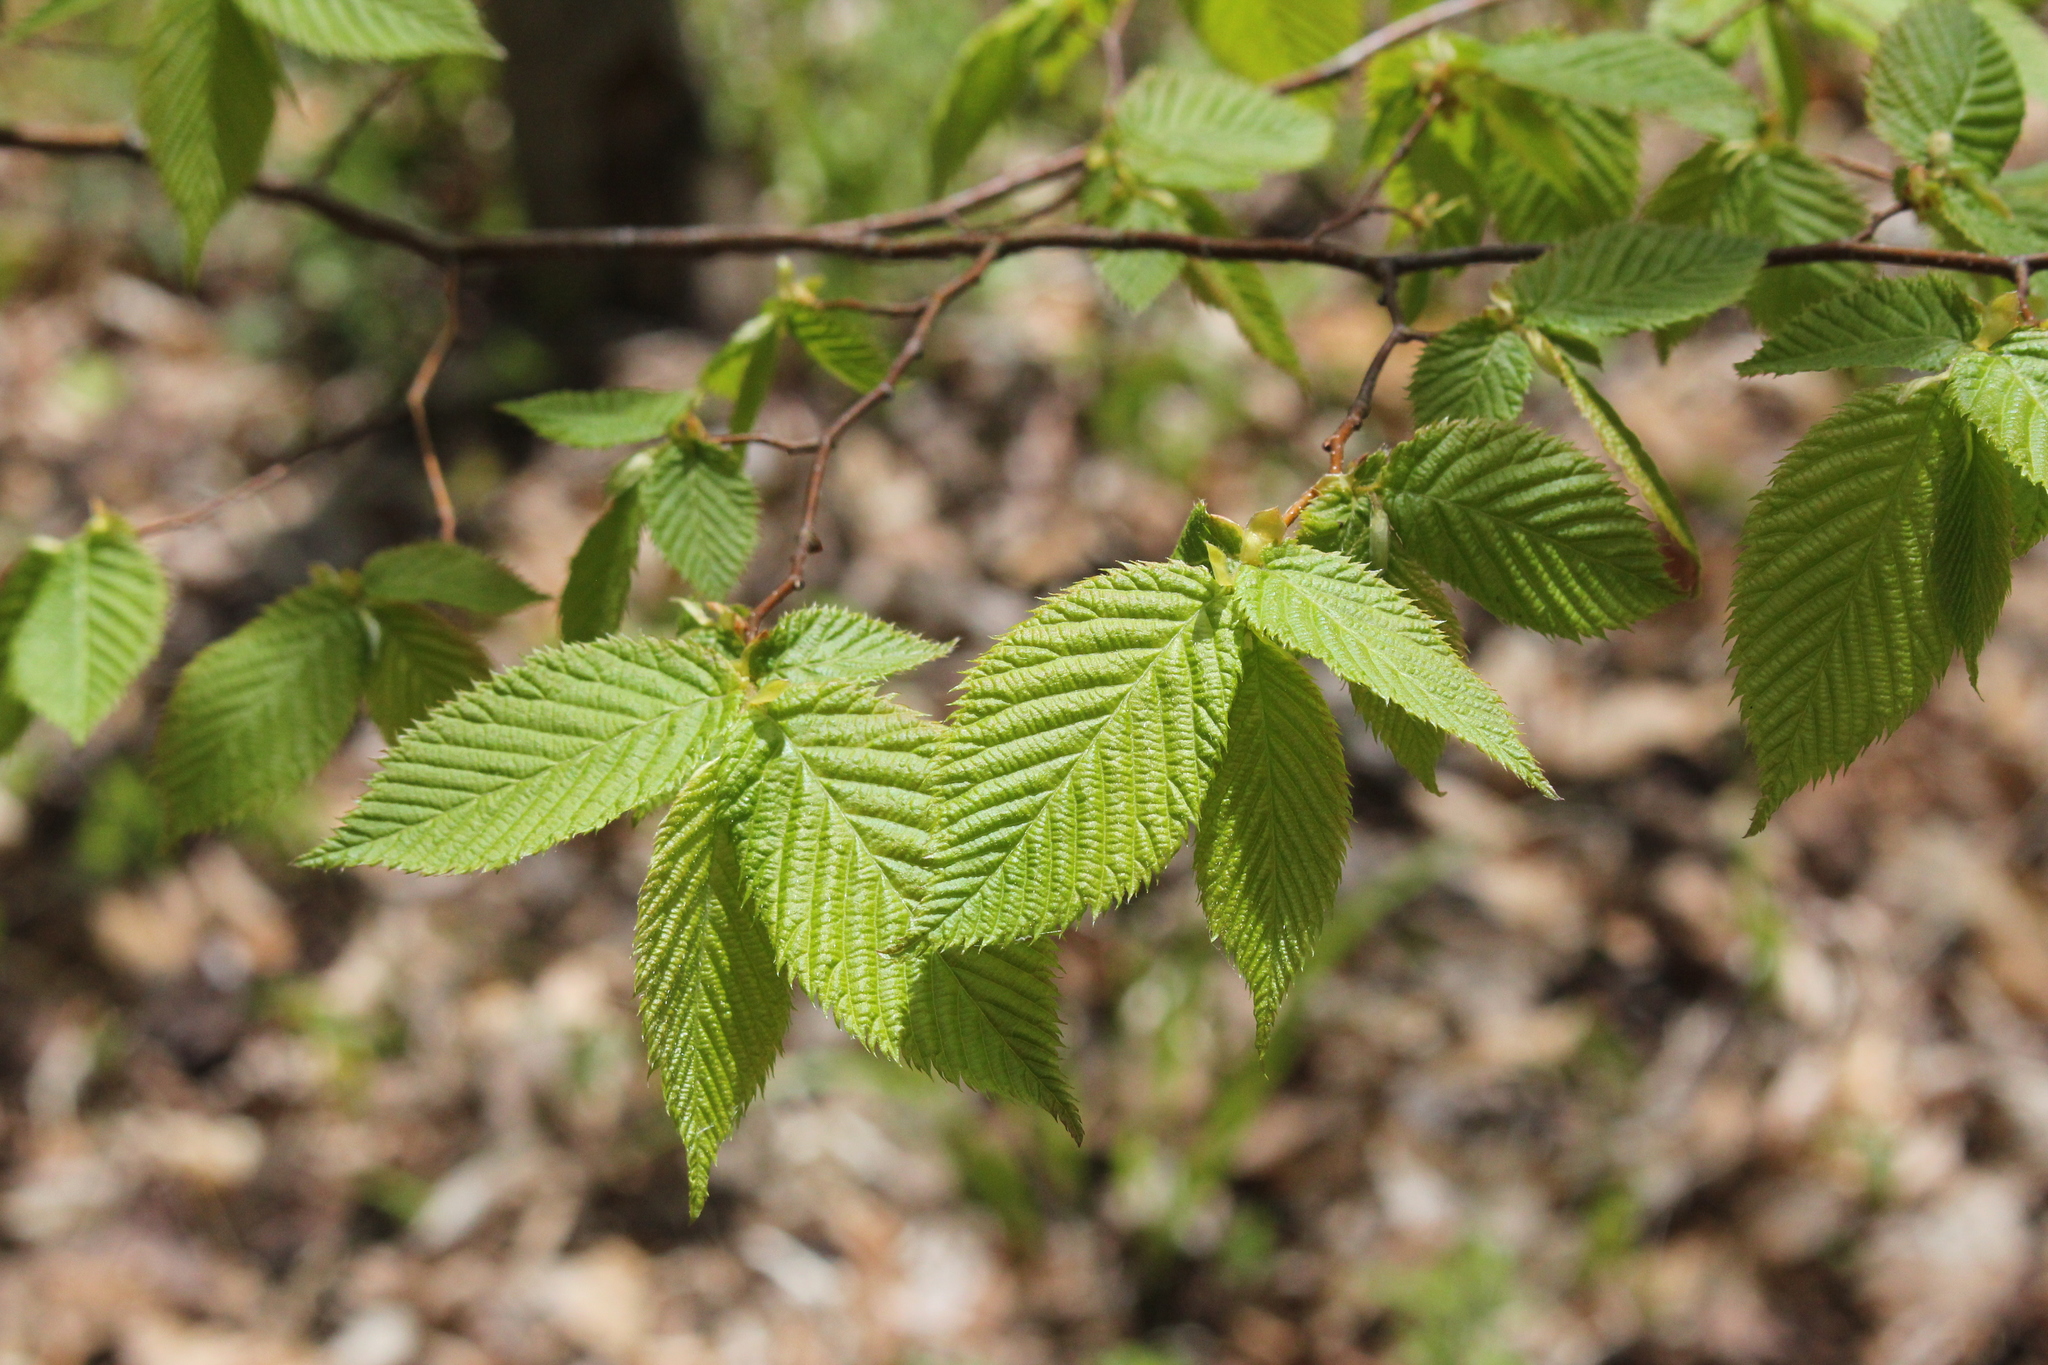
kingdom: Plantae
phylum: Tracheophyta
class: Magnoliopsida
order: Fagales
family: Betulaceae
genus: Ostrya
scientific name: Ostrya virginiana
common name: Ironwood
